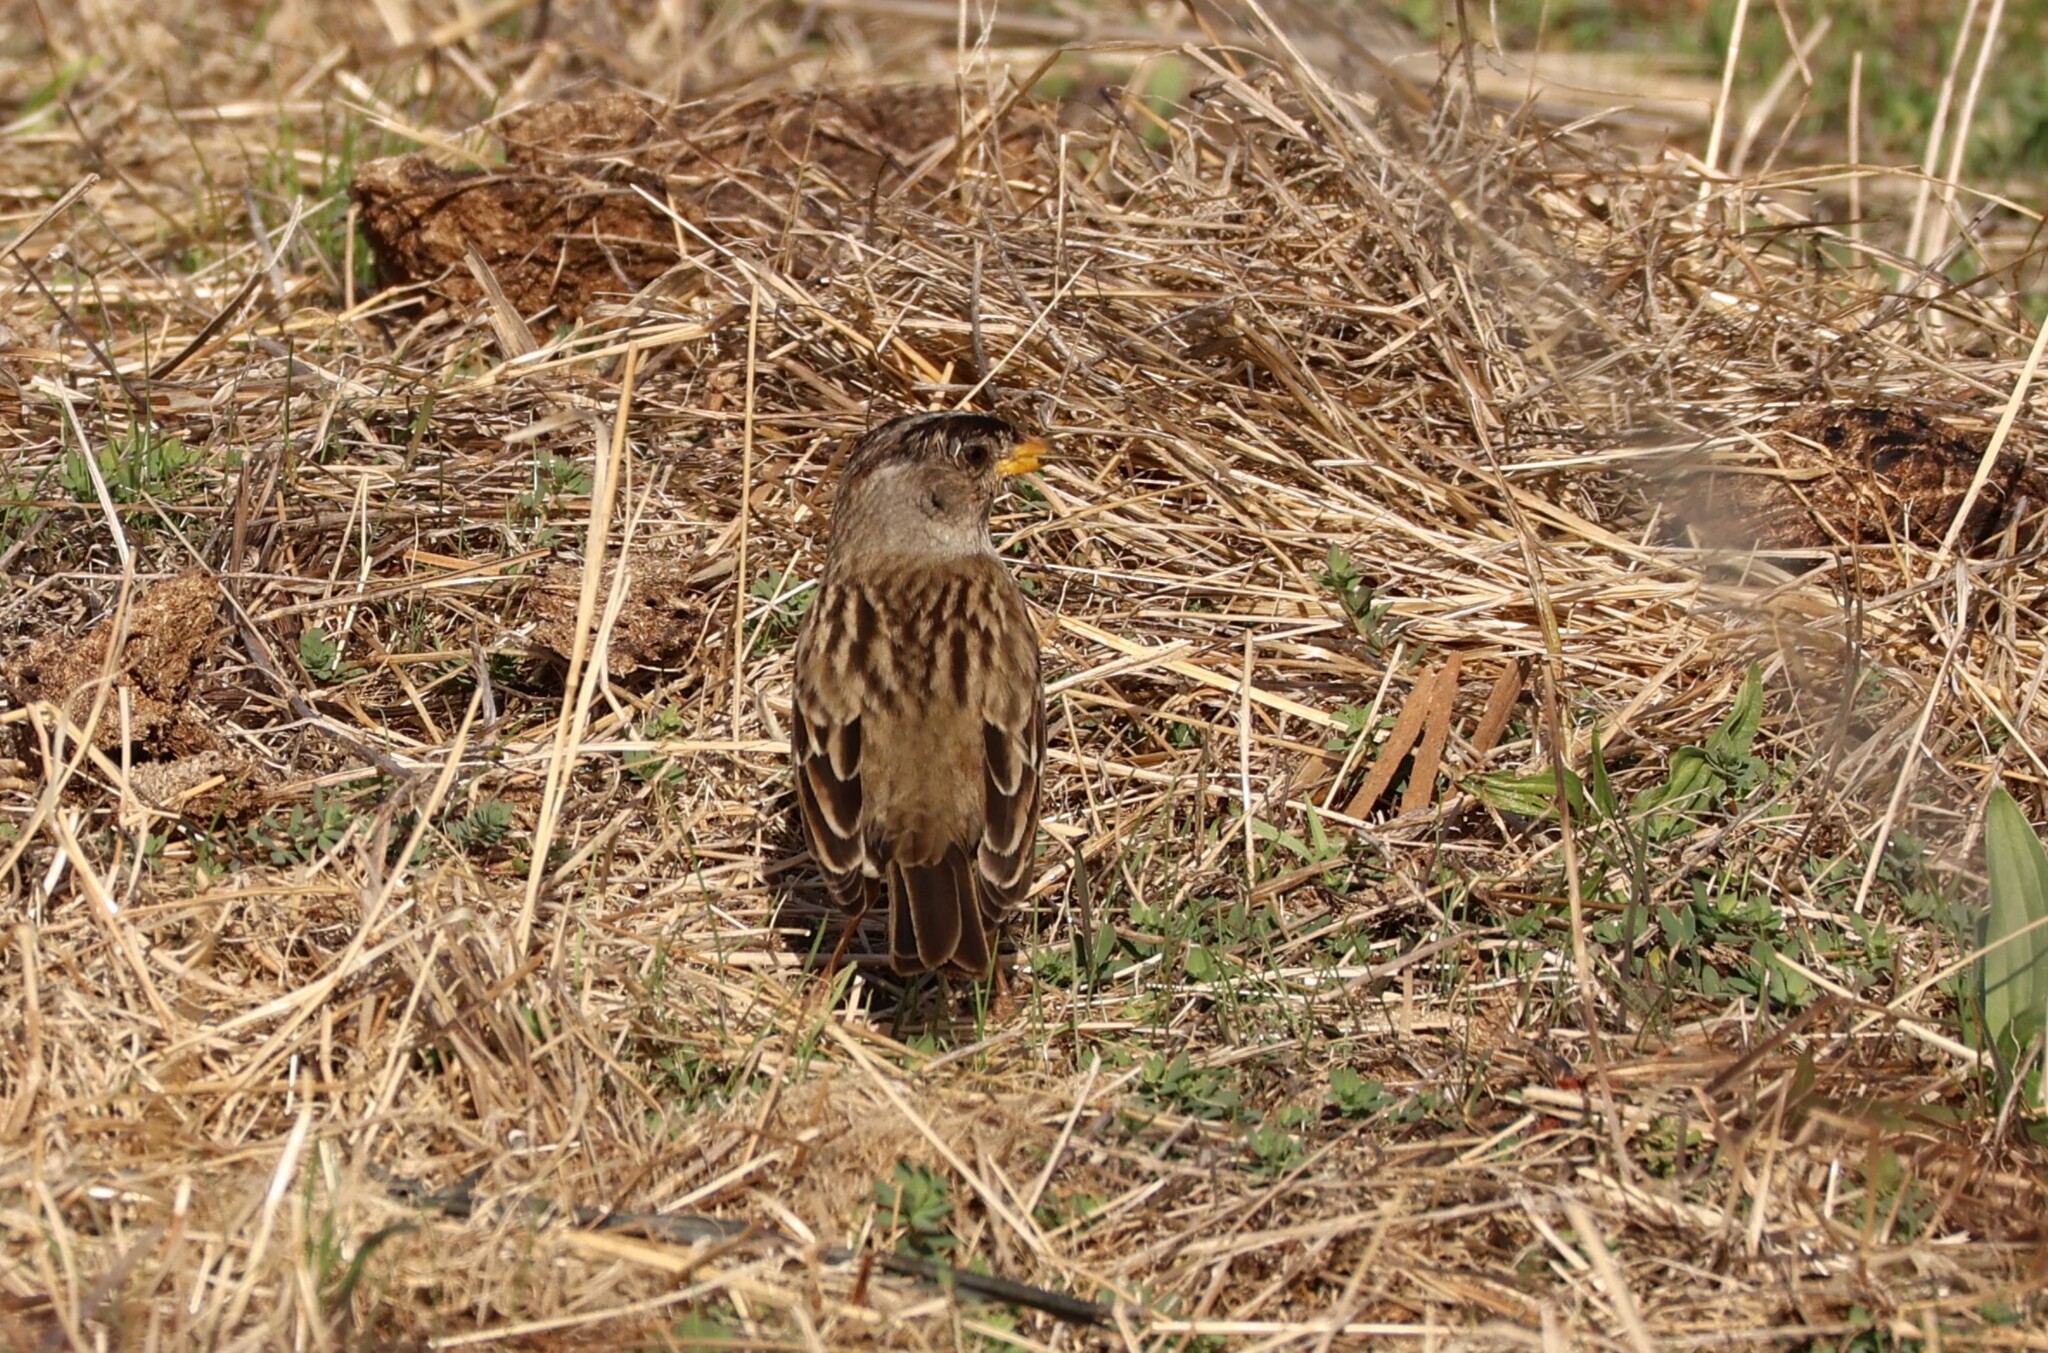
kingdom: Animalia
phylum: Chordata
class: Aves
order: Passeriformes
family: Passerellidae
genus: Zonotrichia
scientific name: Zonotrichia leucophrys
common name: White-crowned sparrow
